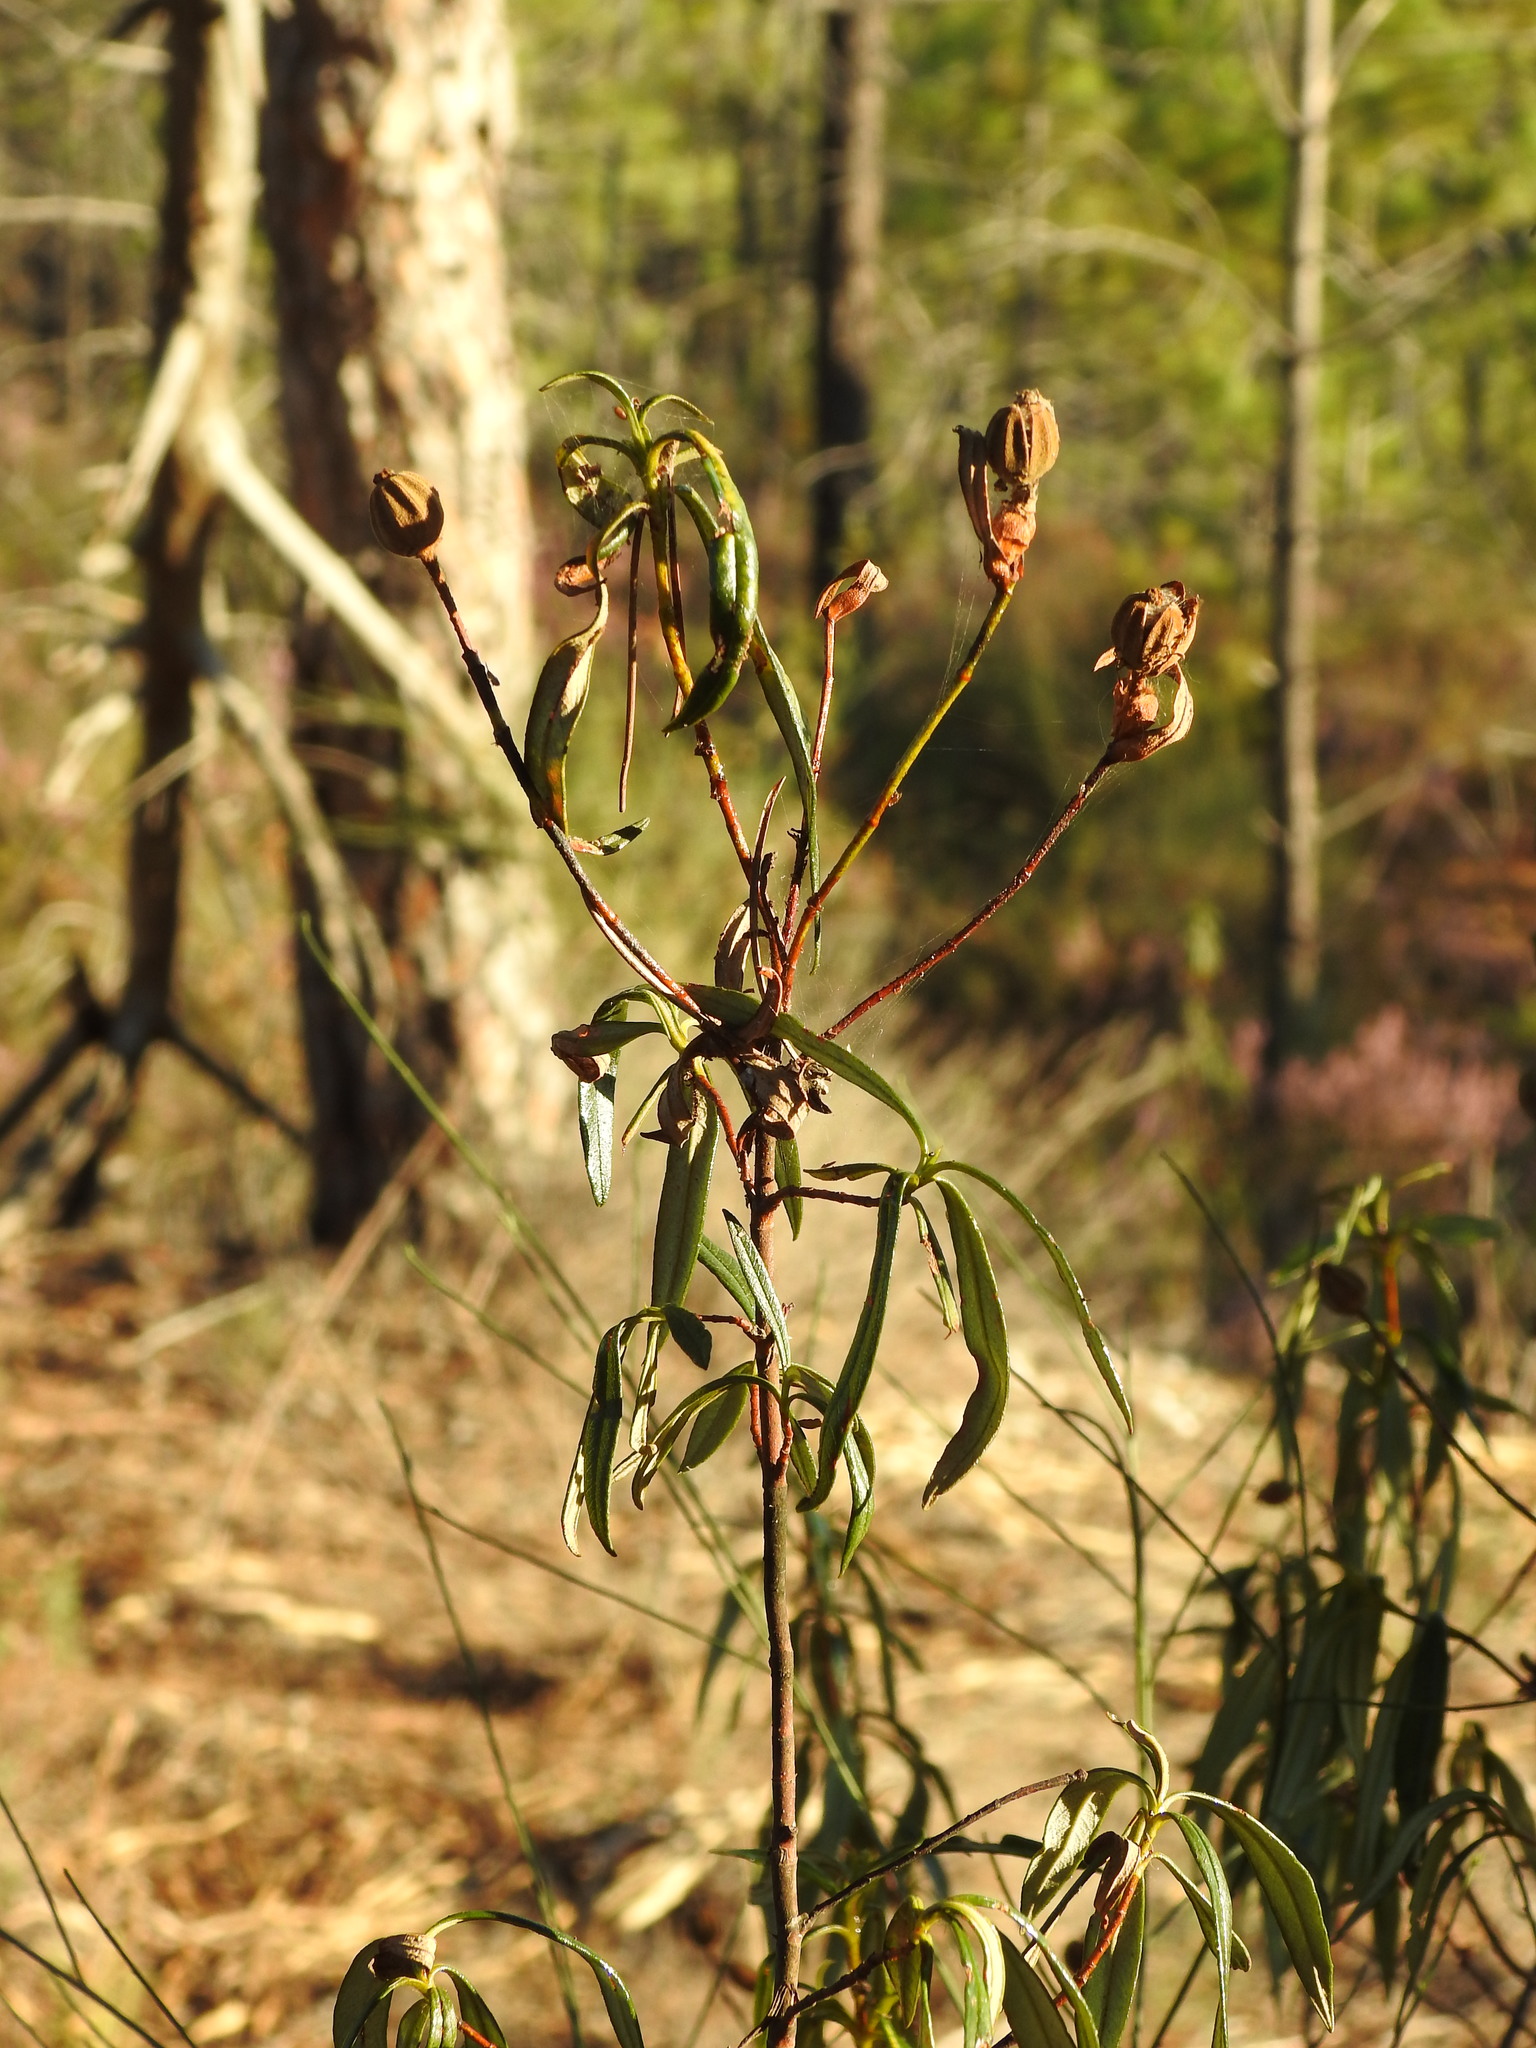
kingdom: Plantae
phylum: Tracheophyta
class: Magnoliopsida
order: Malvales
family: Cistaceae
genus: Cistus
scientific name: Cistus ladanifer
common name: Common gum cistus
